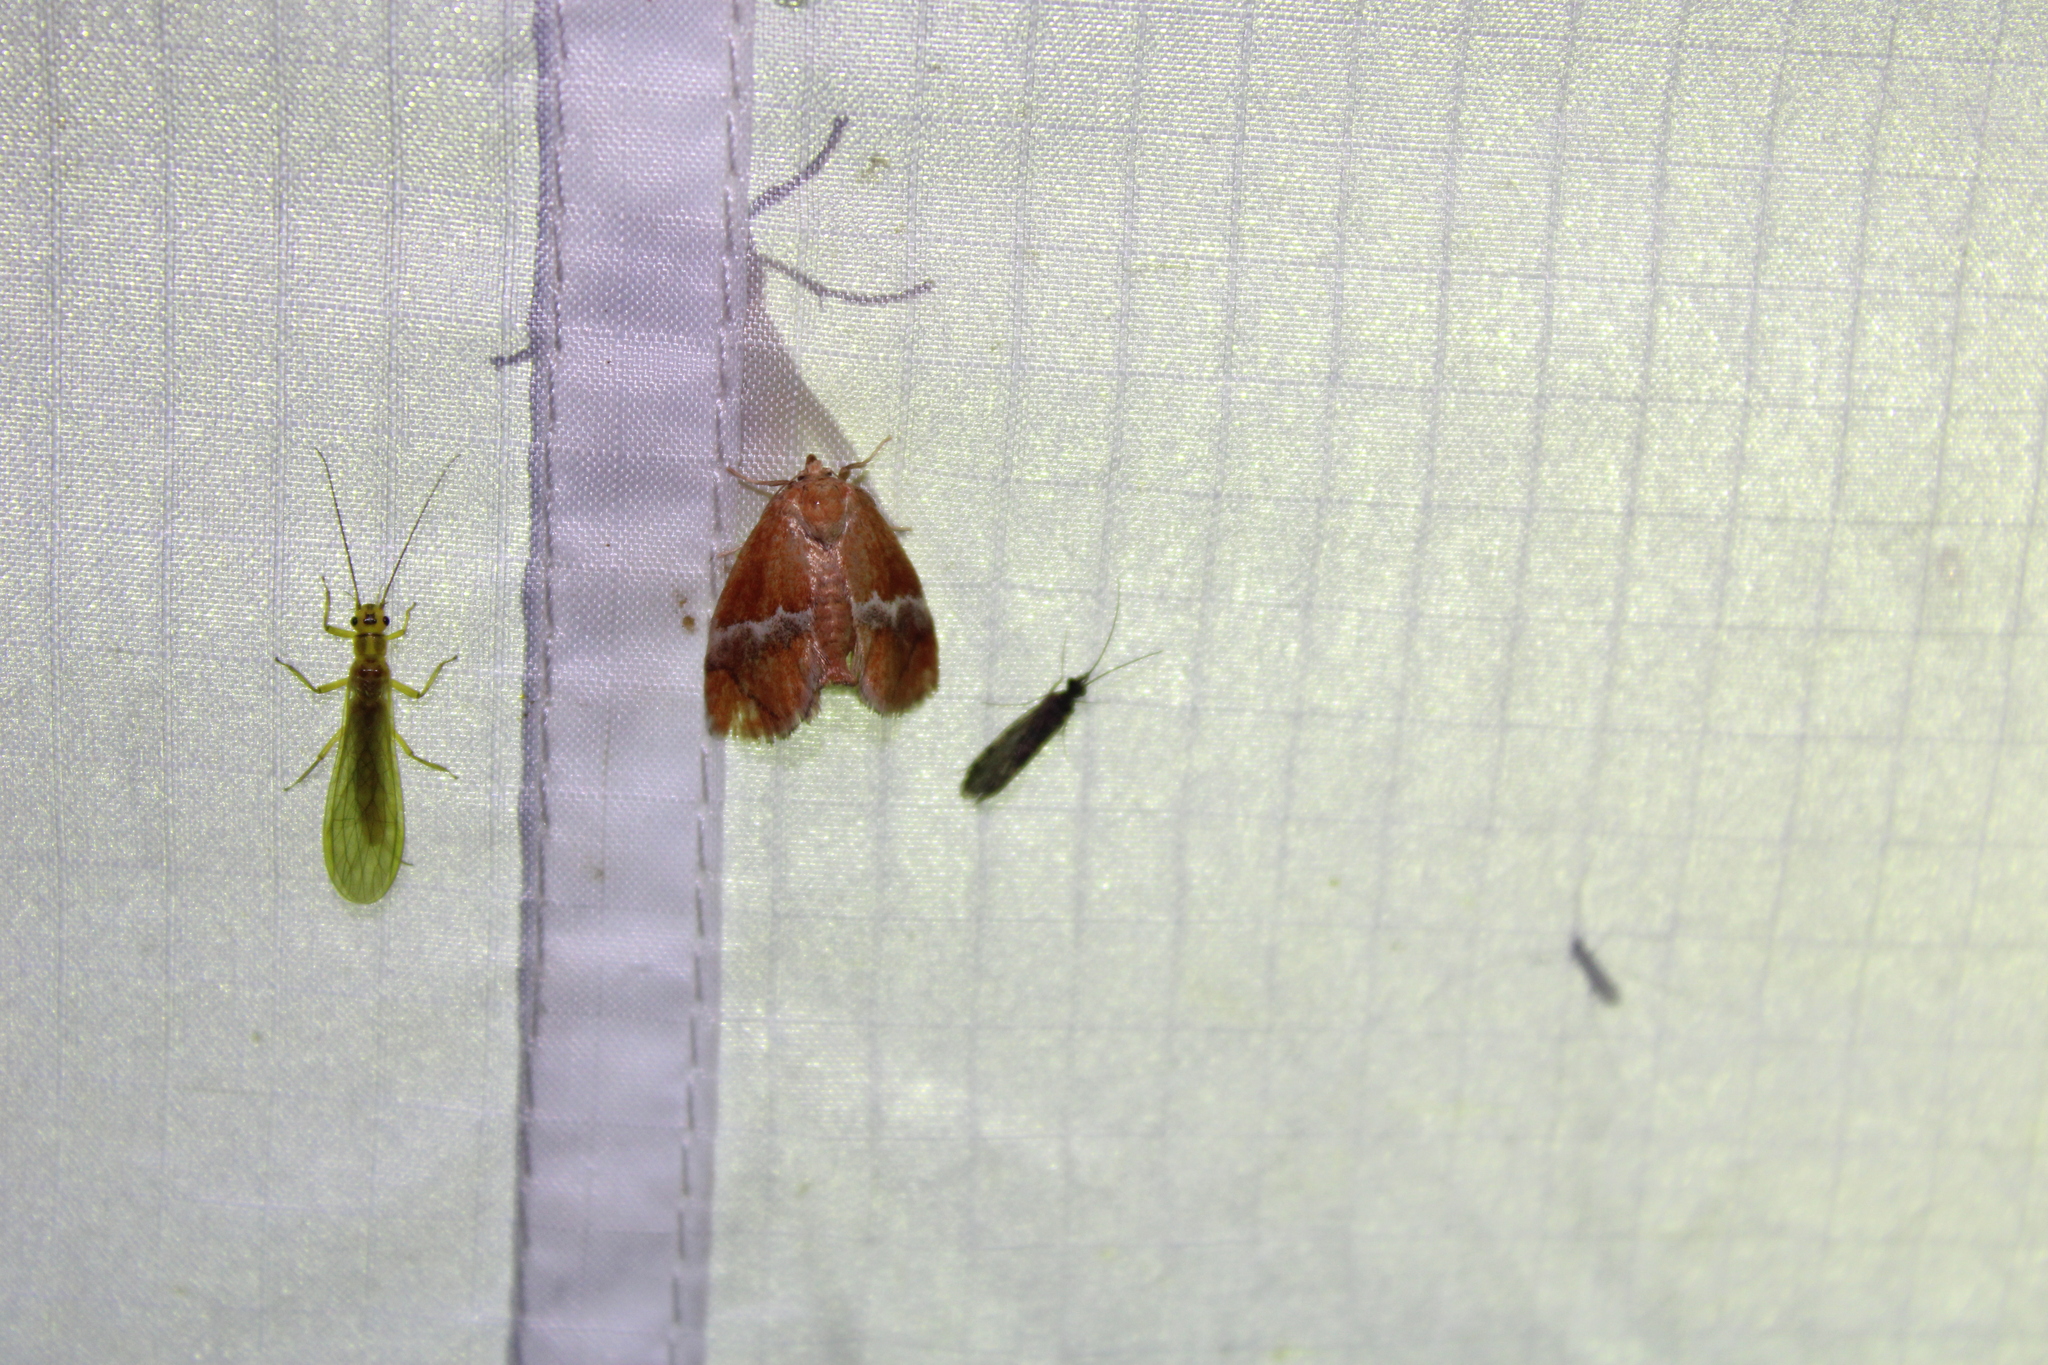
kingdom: Animalia
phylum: Arthropoda
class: Insecta
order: Lepidoptera
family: Limacodidae
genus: Lithacodes
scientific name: Lithacodes fasciola
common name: Yellow-shouldered slug moth
